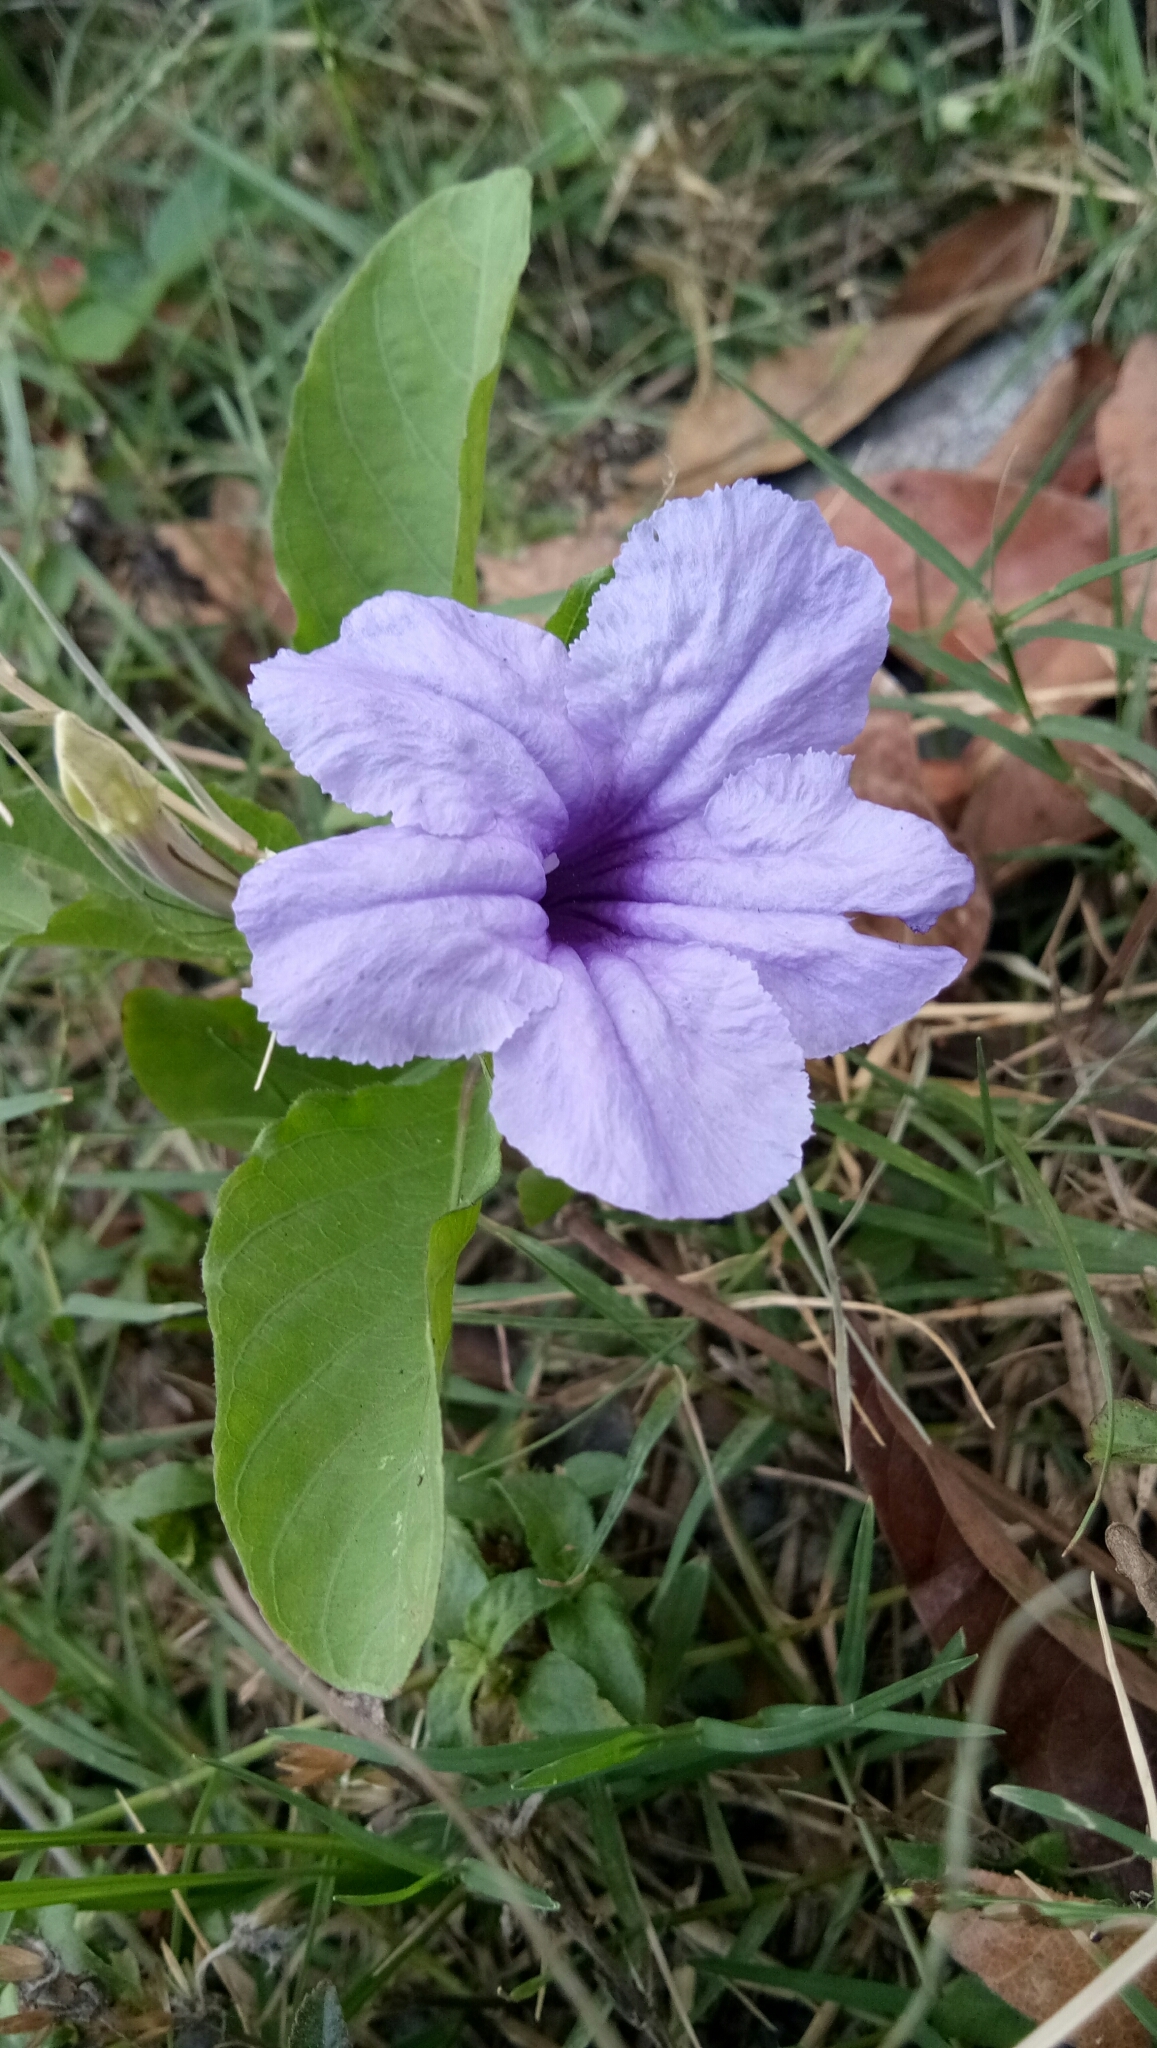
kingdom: Plantae
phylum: Tracheophyta
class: Magnoliopsida
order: Lamiales
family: Acanthaceae
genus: Ruellia
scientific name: Ruellia tuberosa
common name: Devil's bit
